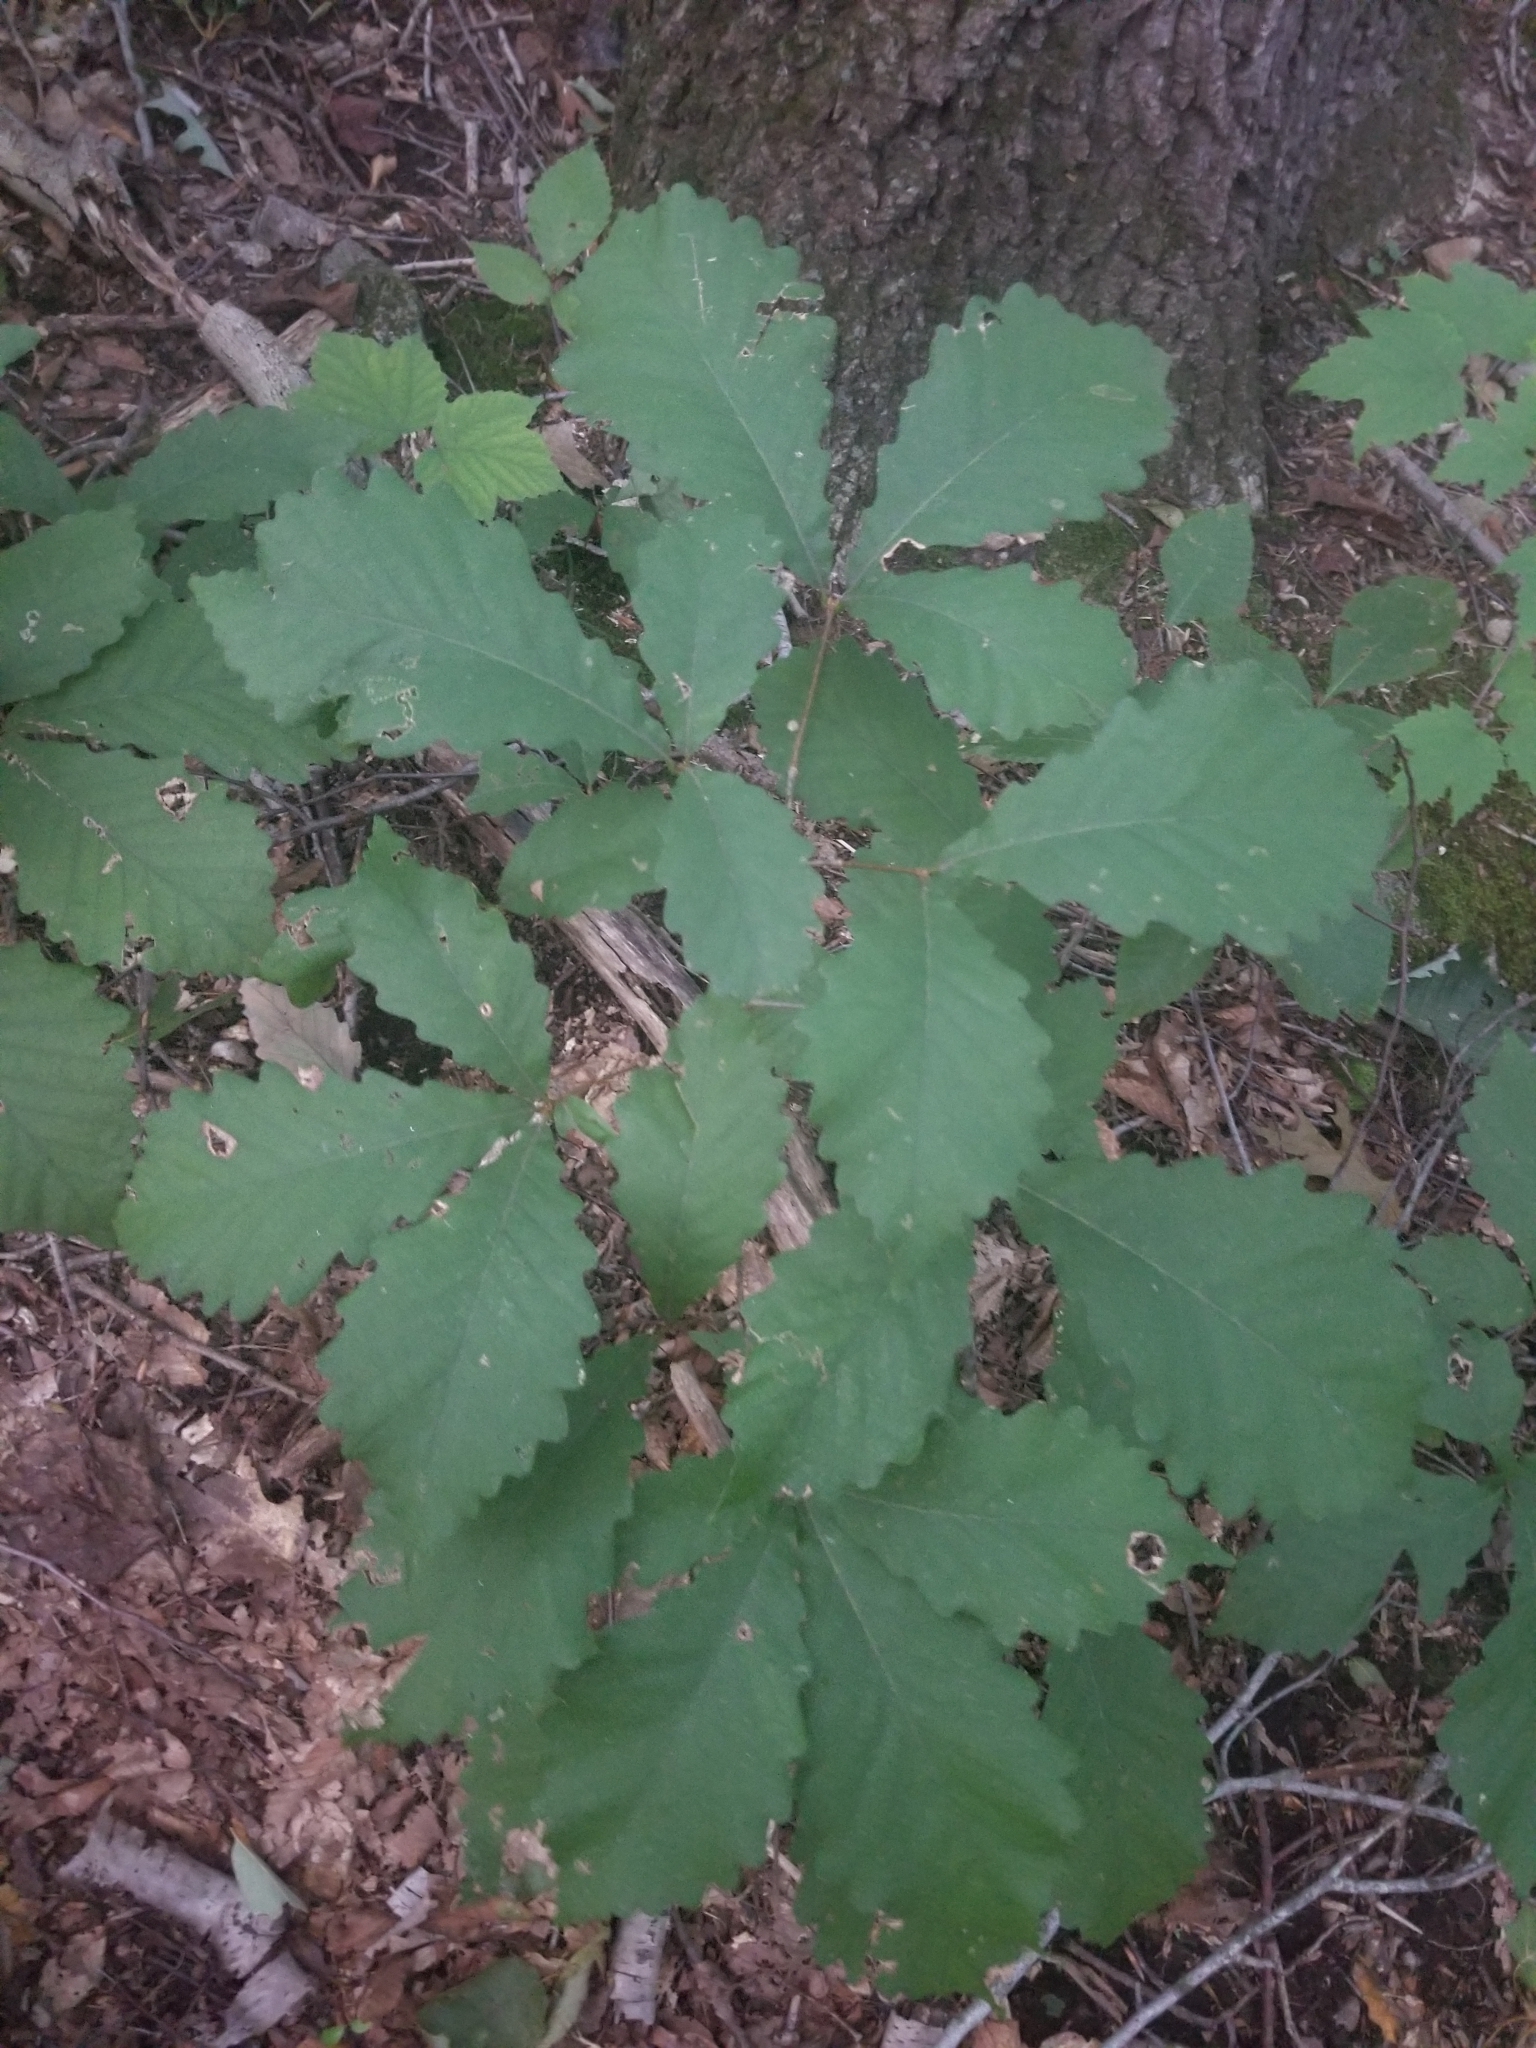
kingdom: Plantae
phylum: Tracheophyta
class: Magnoliopsida
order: Fagales
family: Fagaceae
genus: Quercus
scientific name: Quercus montana
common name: Chestnut oak
